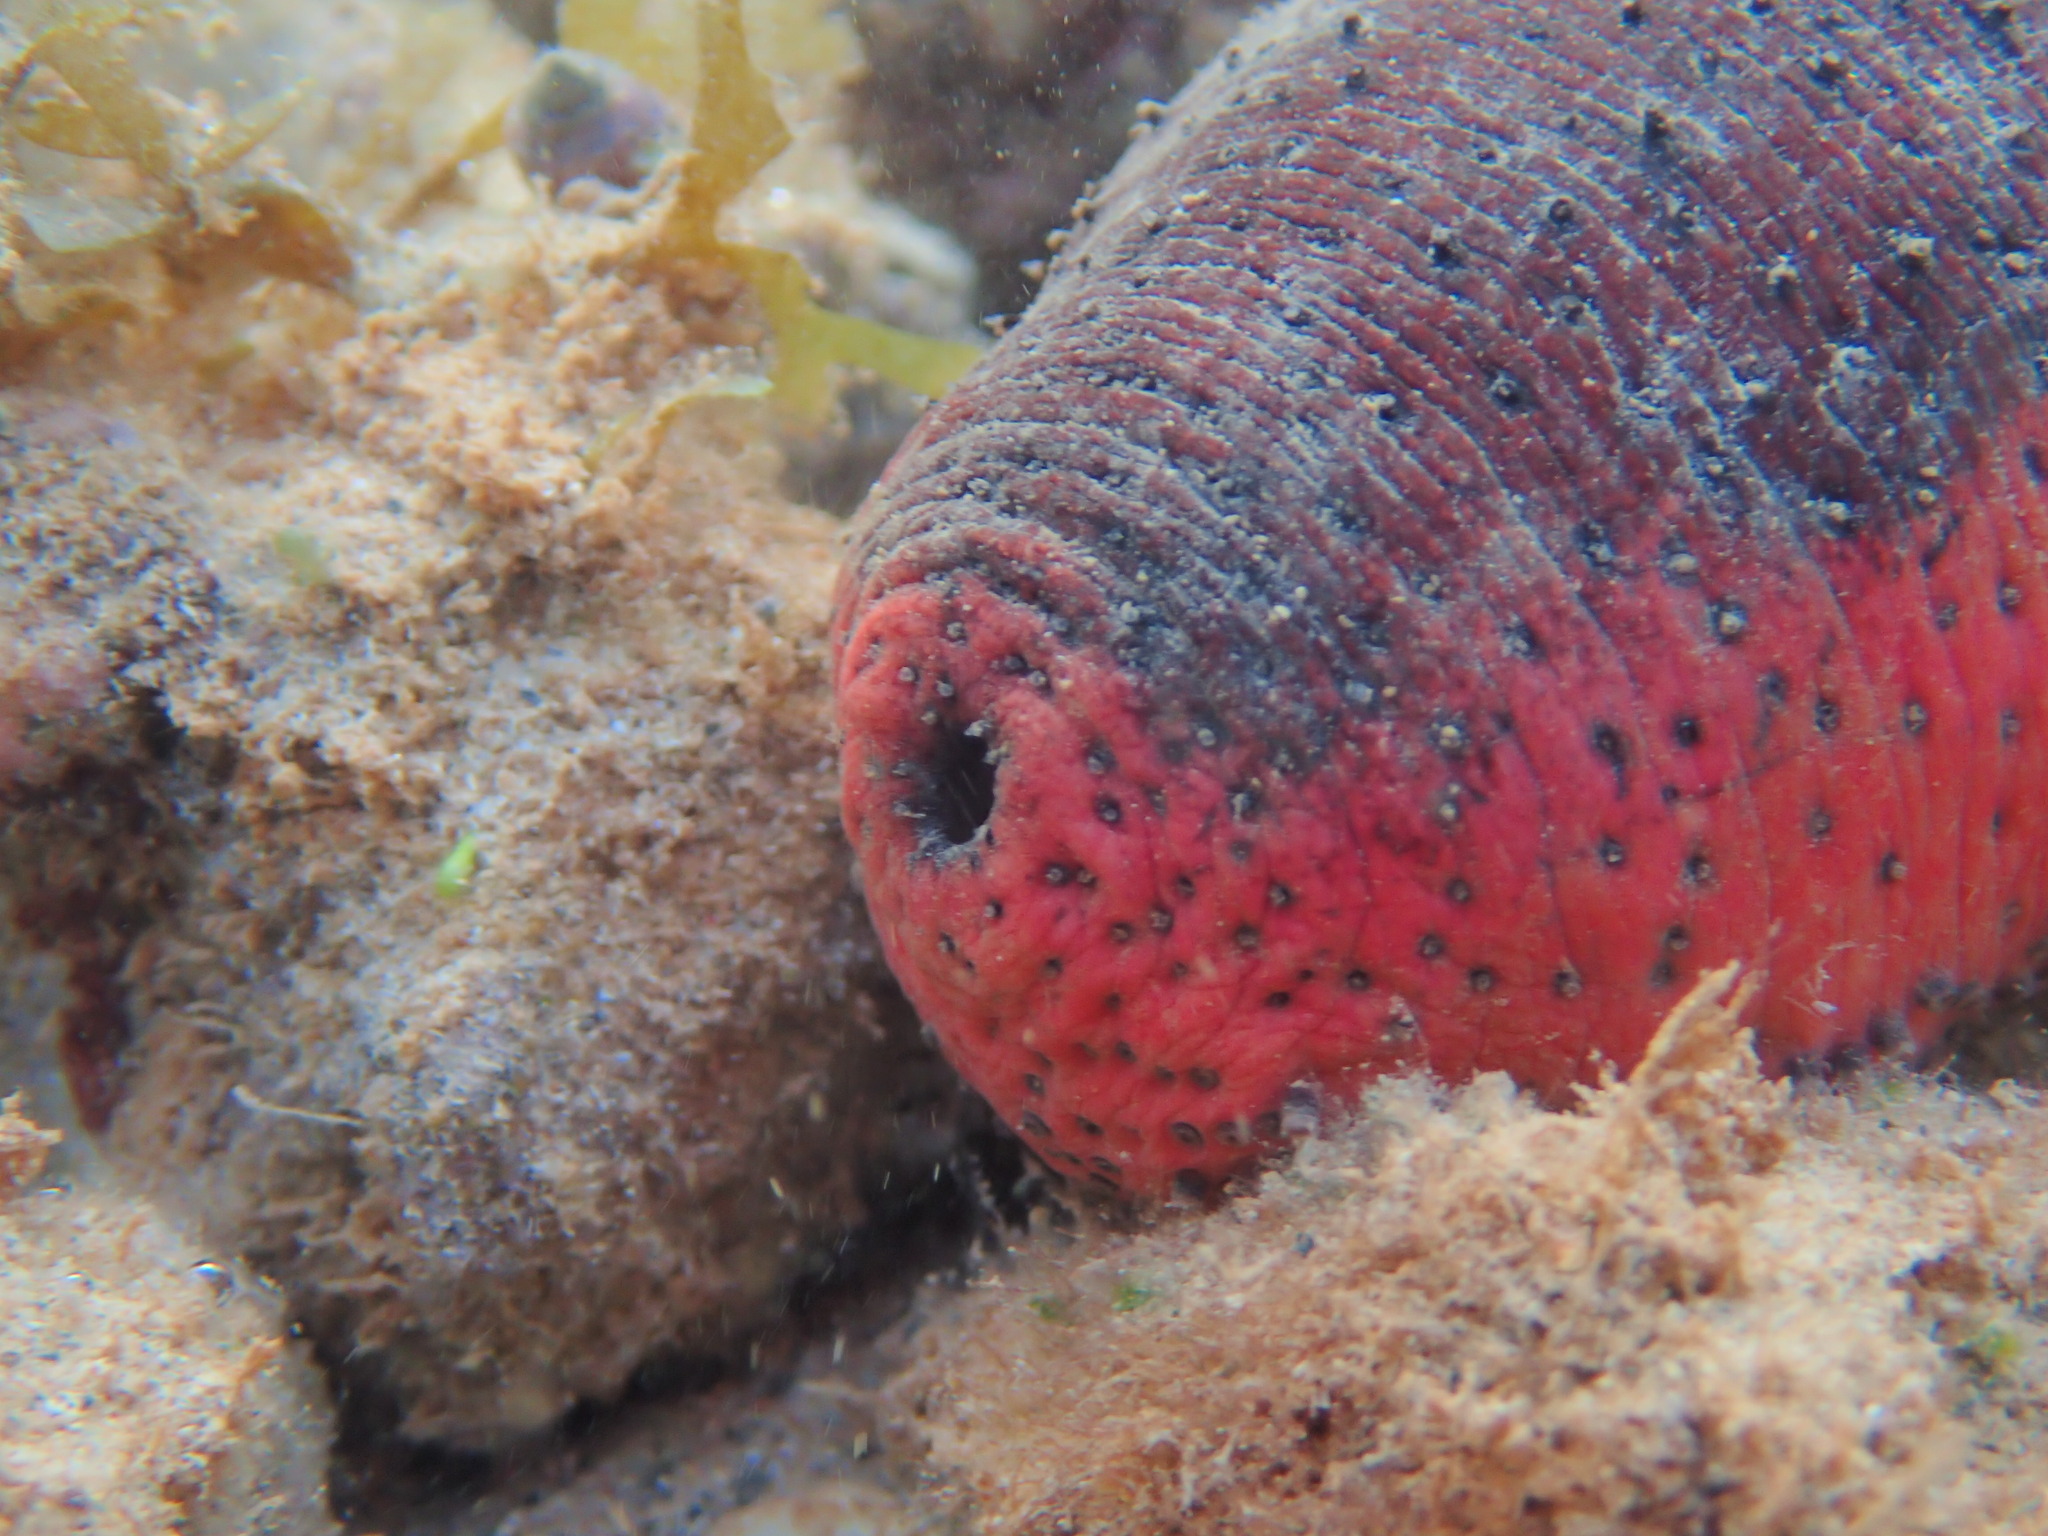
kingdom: Animalia
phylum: Echinodermata
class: Holothuroidea
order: Holothuriida
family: Holothuriidae
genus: Holothuria
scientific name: Holothuria edulis
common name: Pinkfish
